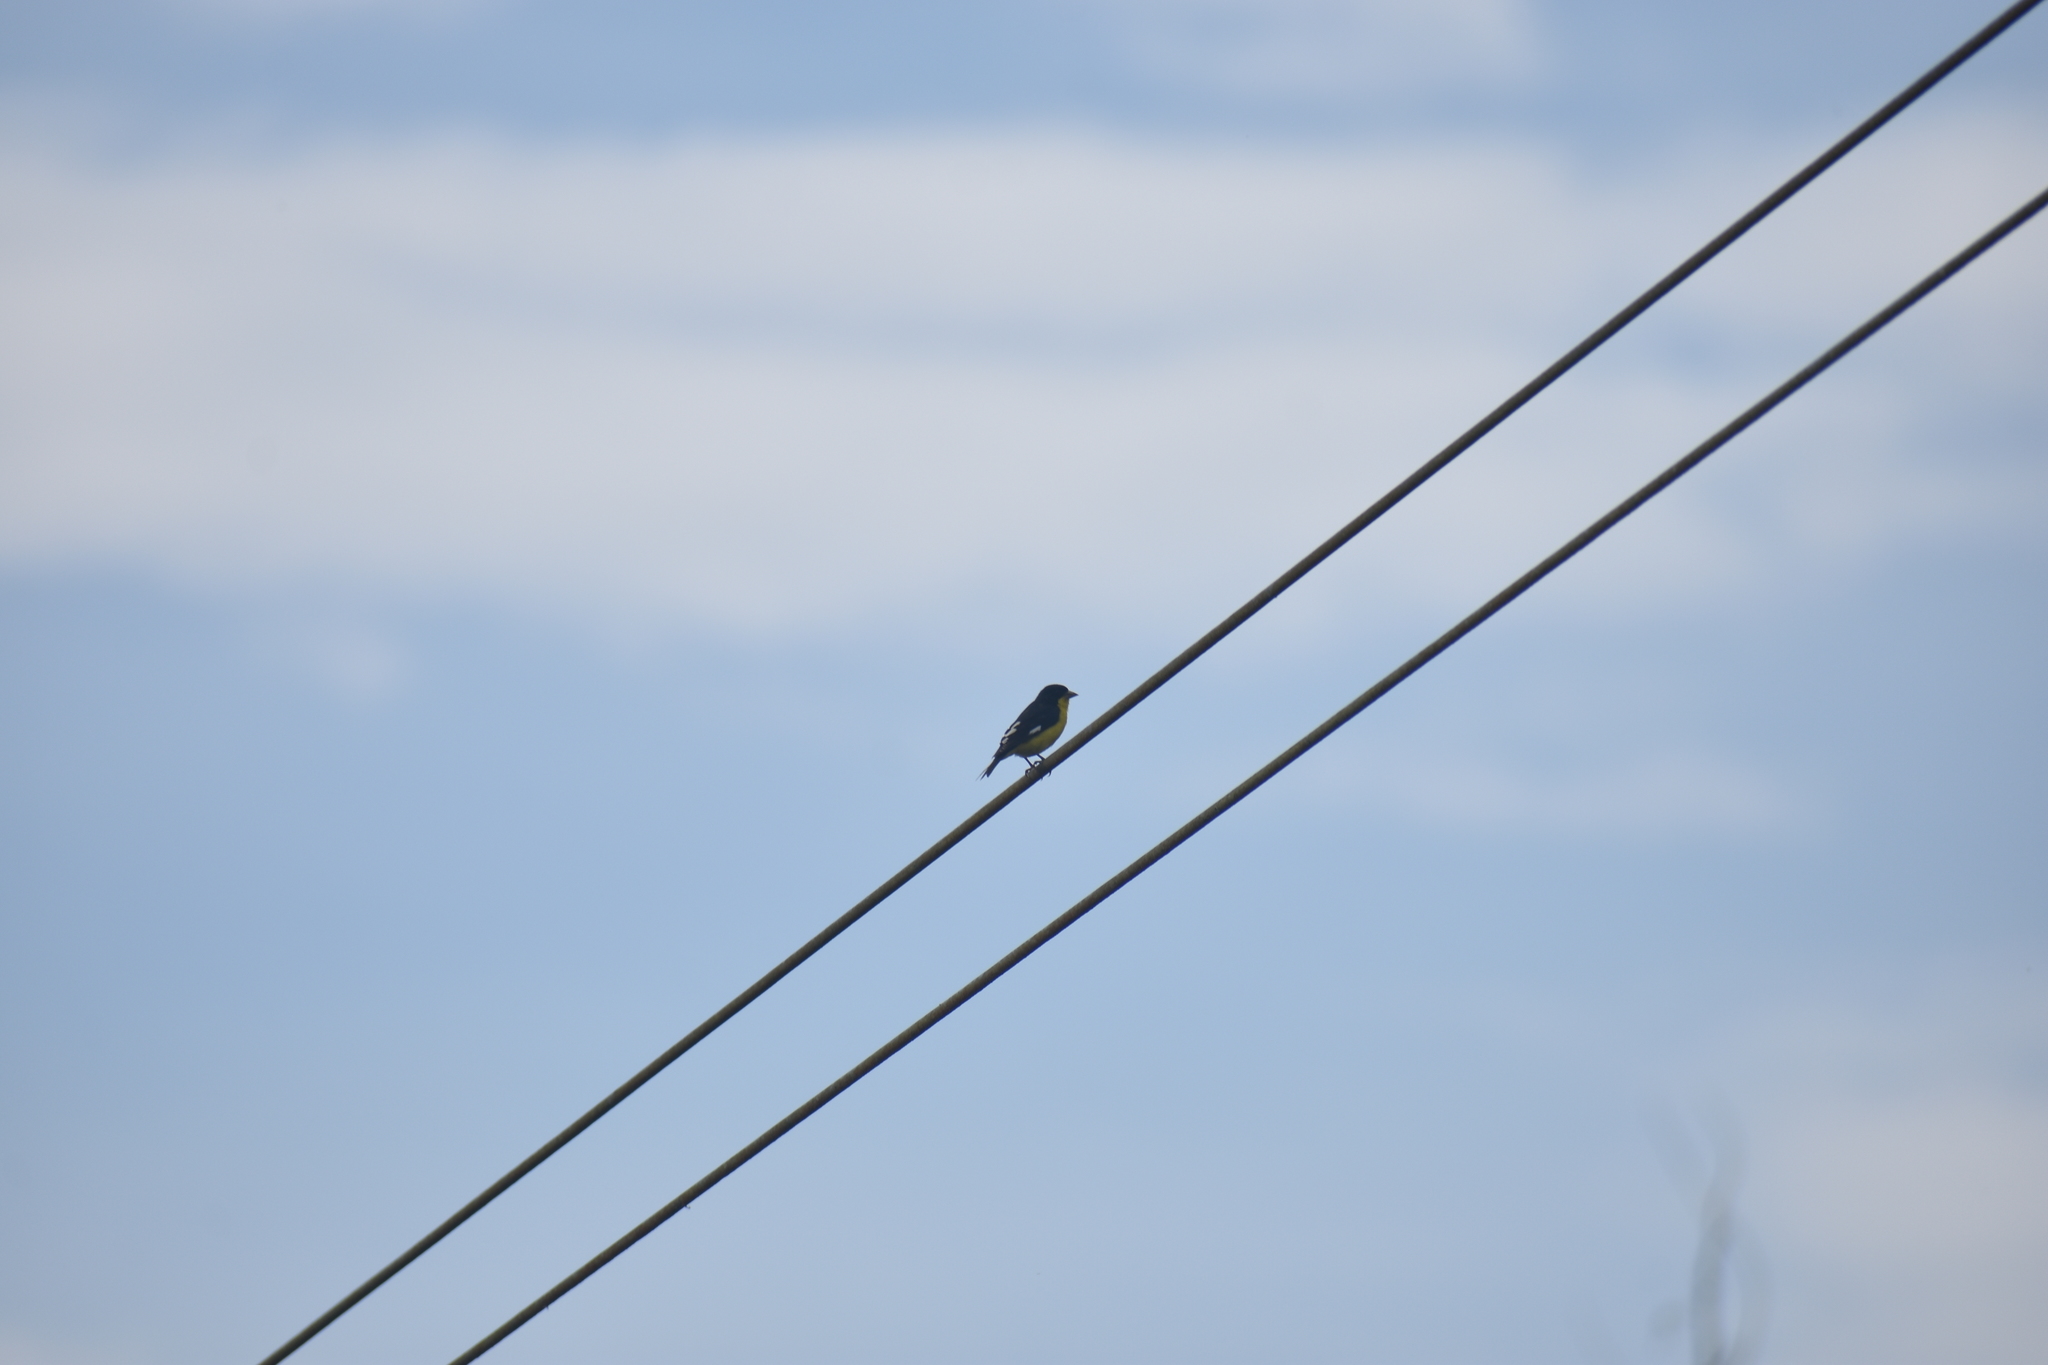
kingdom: Animalia
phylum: Chordata
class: Aves
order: Passeriformes
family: Fringillidae
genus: Spinus
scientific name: Spinus psaltria
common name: Lesser goldfinch
